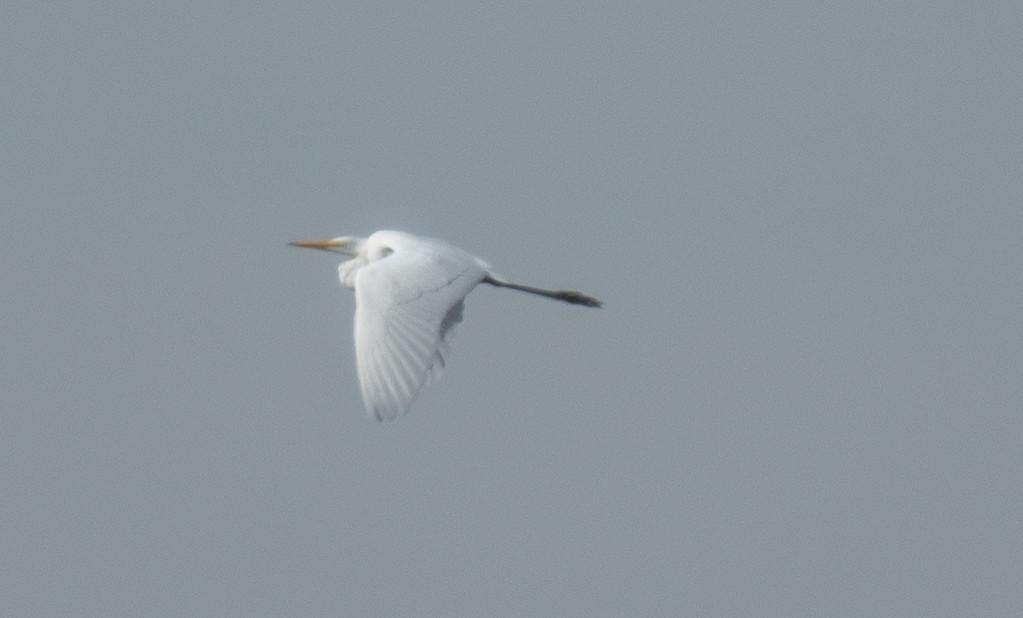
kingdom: Animalia
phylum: Chordata
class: Aves
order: Pelecaniformes
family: Ardeidae
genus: Ardea
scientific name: Ardea alba
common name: Great egret
